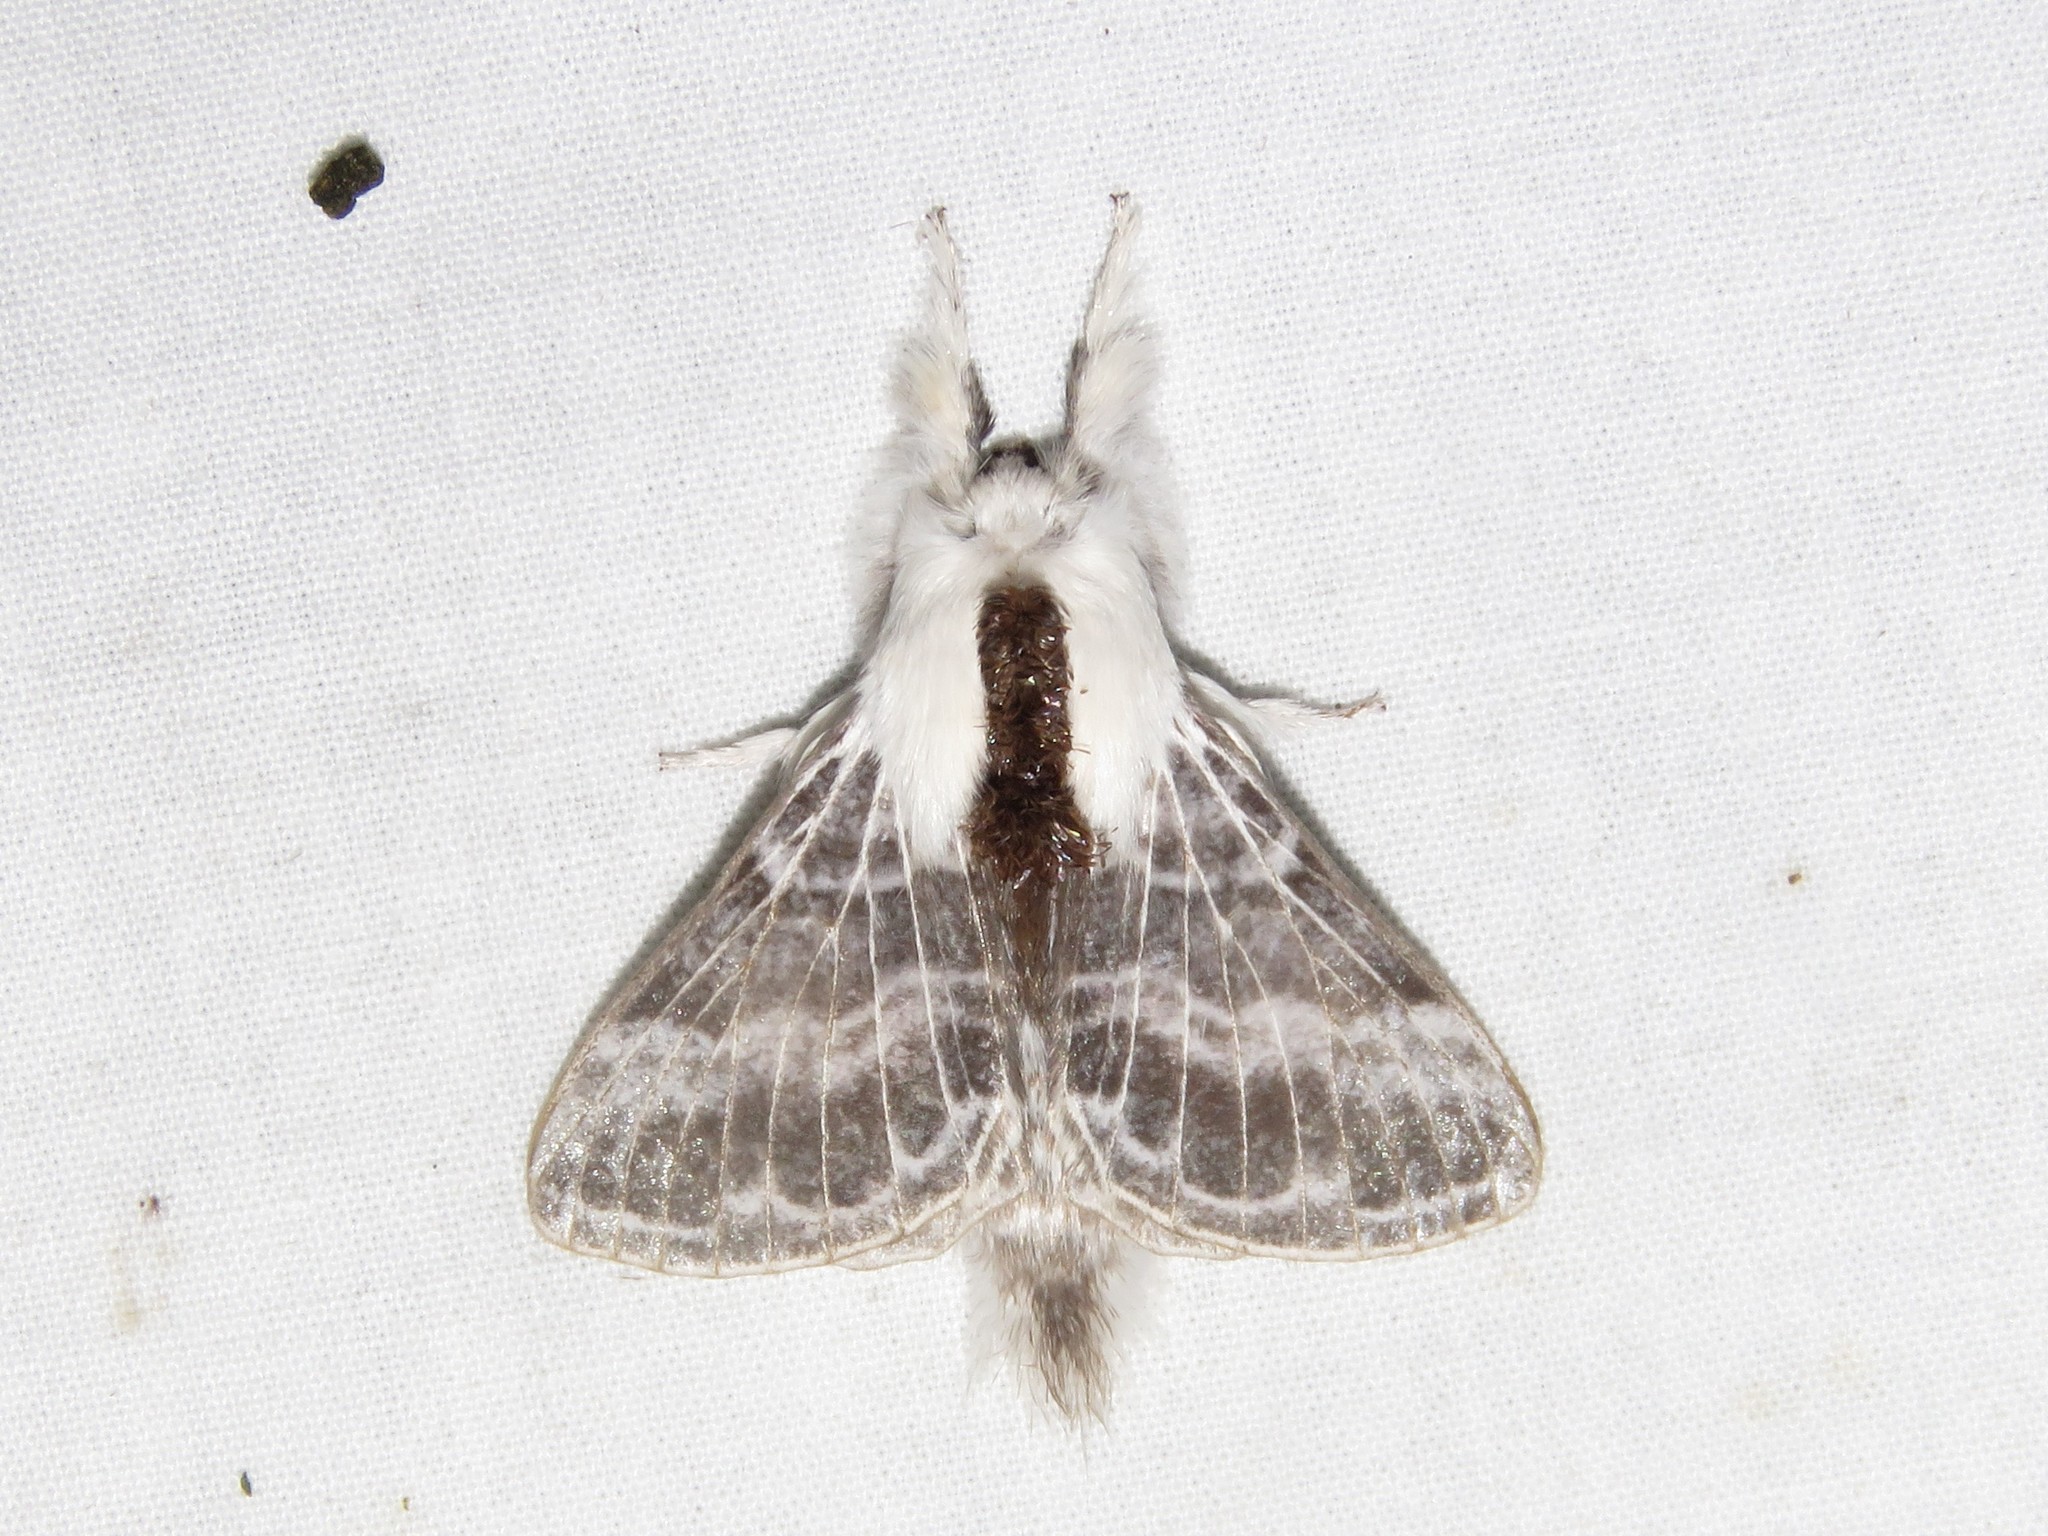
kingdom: Animalia
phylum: Arthropoda
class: Insecta
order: Lepidoptera
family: Lasiocampidae
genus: Tolype
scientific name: Tolype velleda
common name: Large tolype moth
